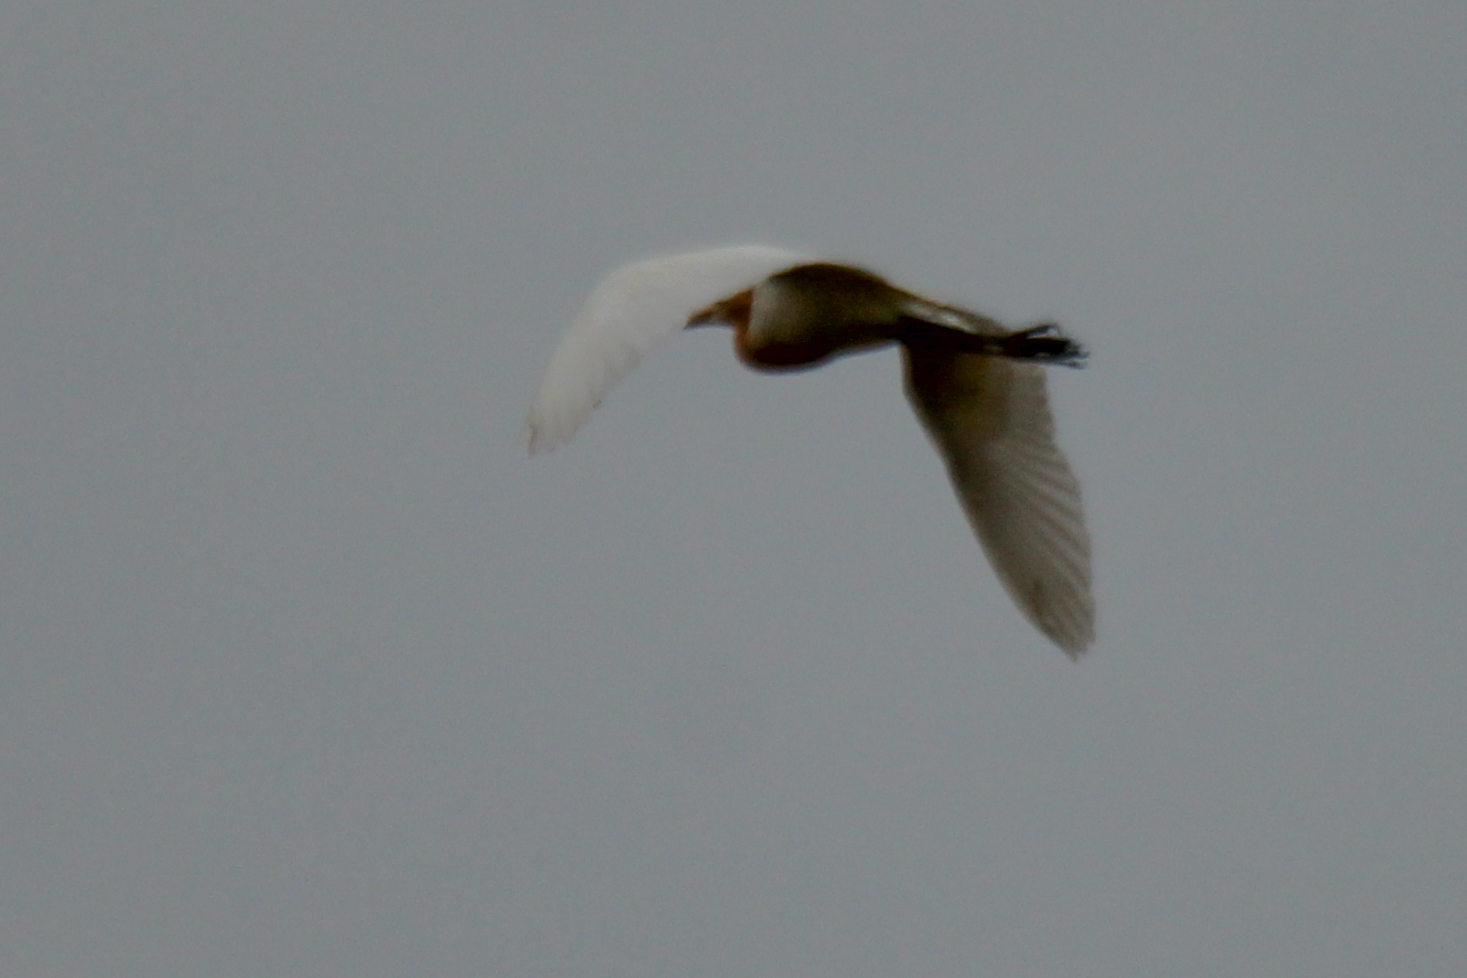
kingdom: Animalia
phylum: Chordata
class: Aves
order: Pelecaniformes
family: Ardeidae
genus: Bubulcus
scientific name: Bubulcus coromandus
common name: Eastern cattle egret
